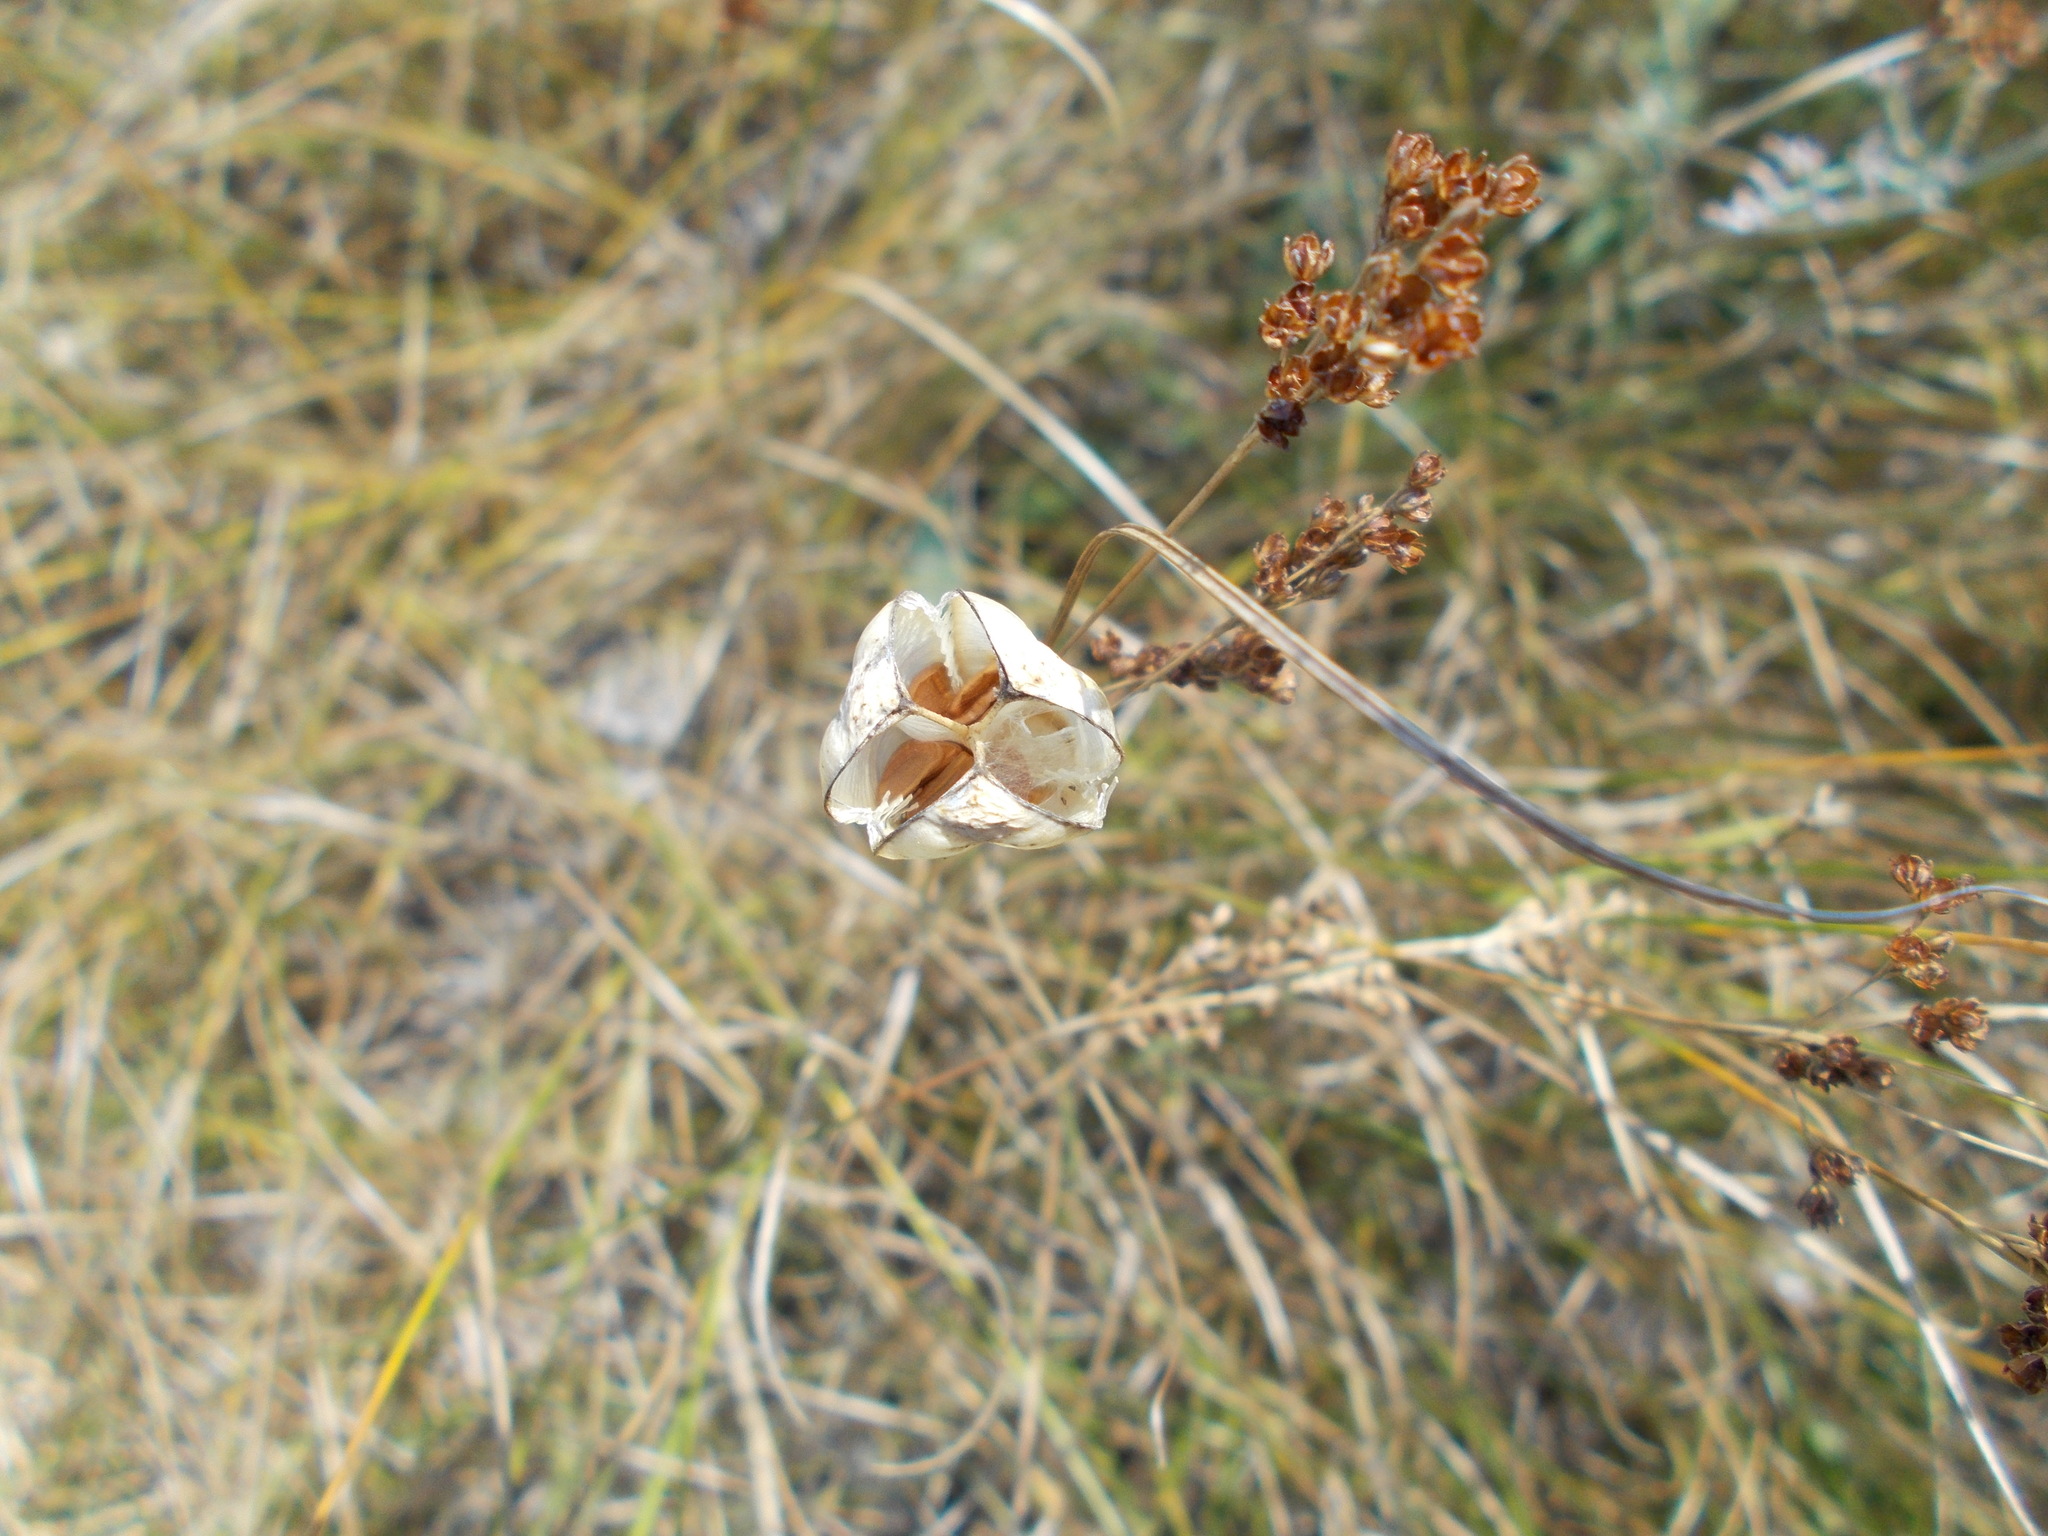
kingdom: Plantae
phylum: Tracheophyta
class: Liliopsida
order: Liliales
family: Liliaceae
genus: Fritillaria
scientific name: Fritillaria meleagroides
